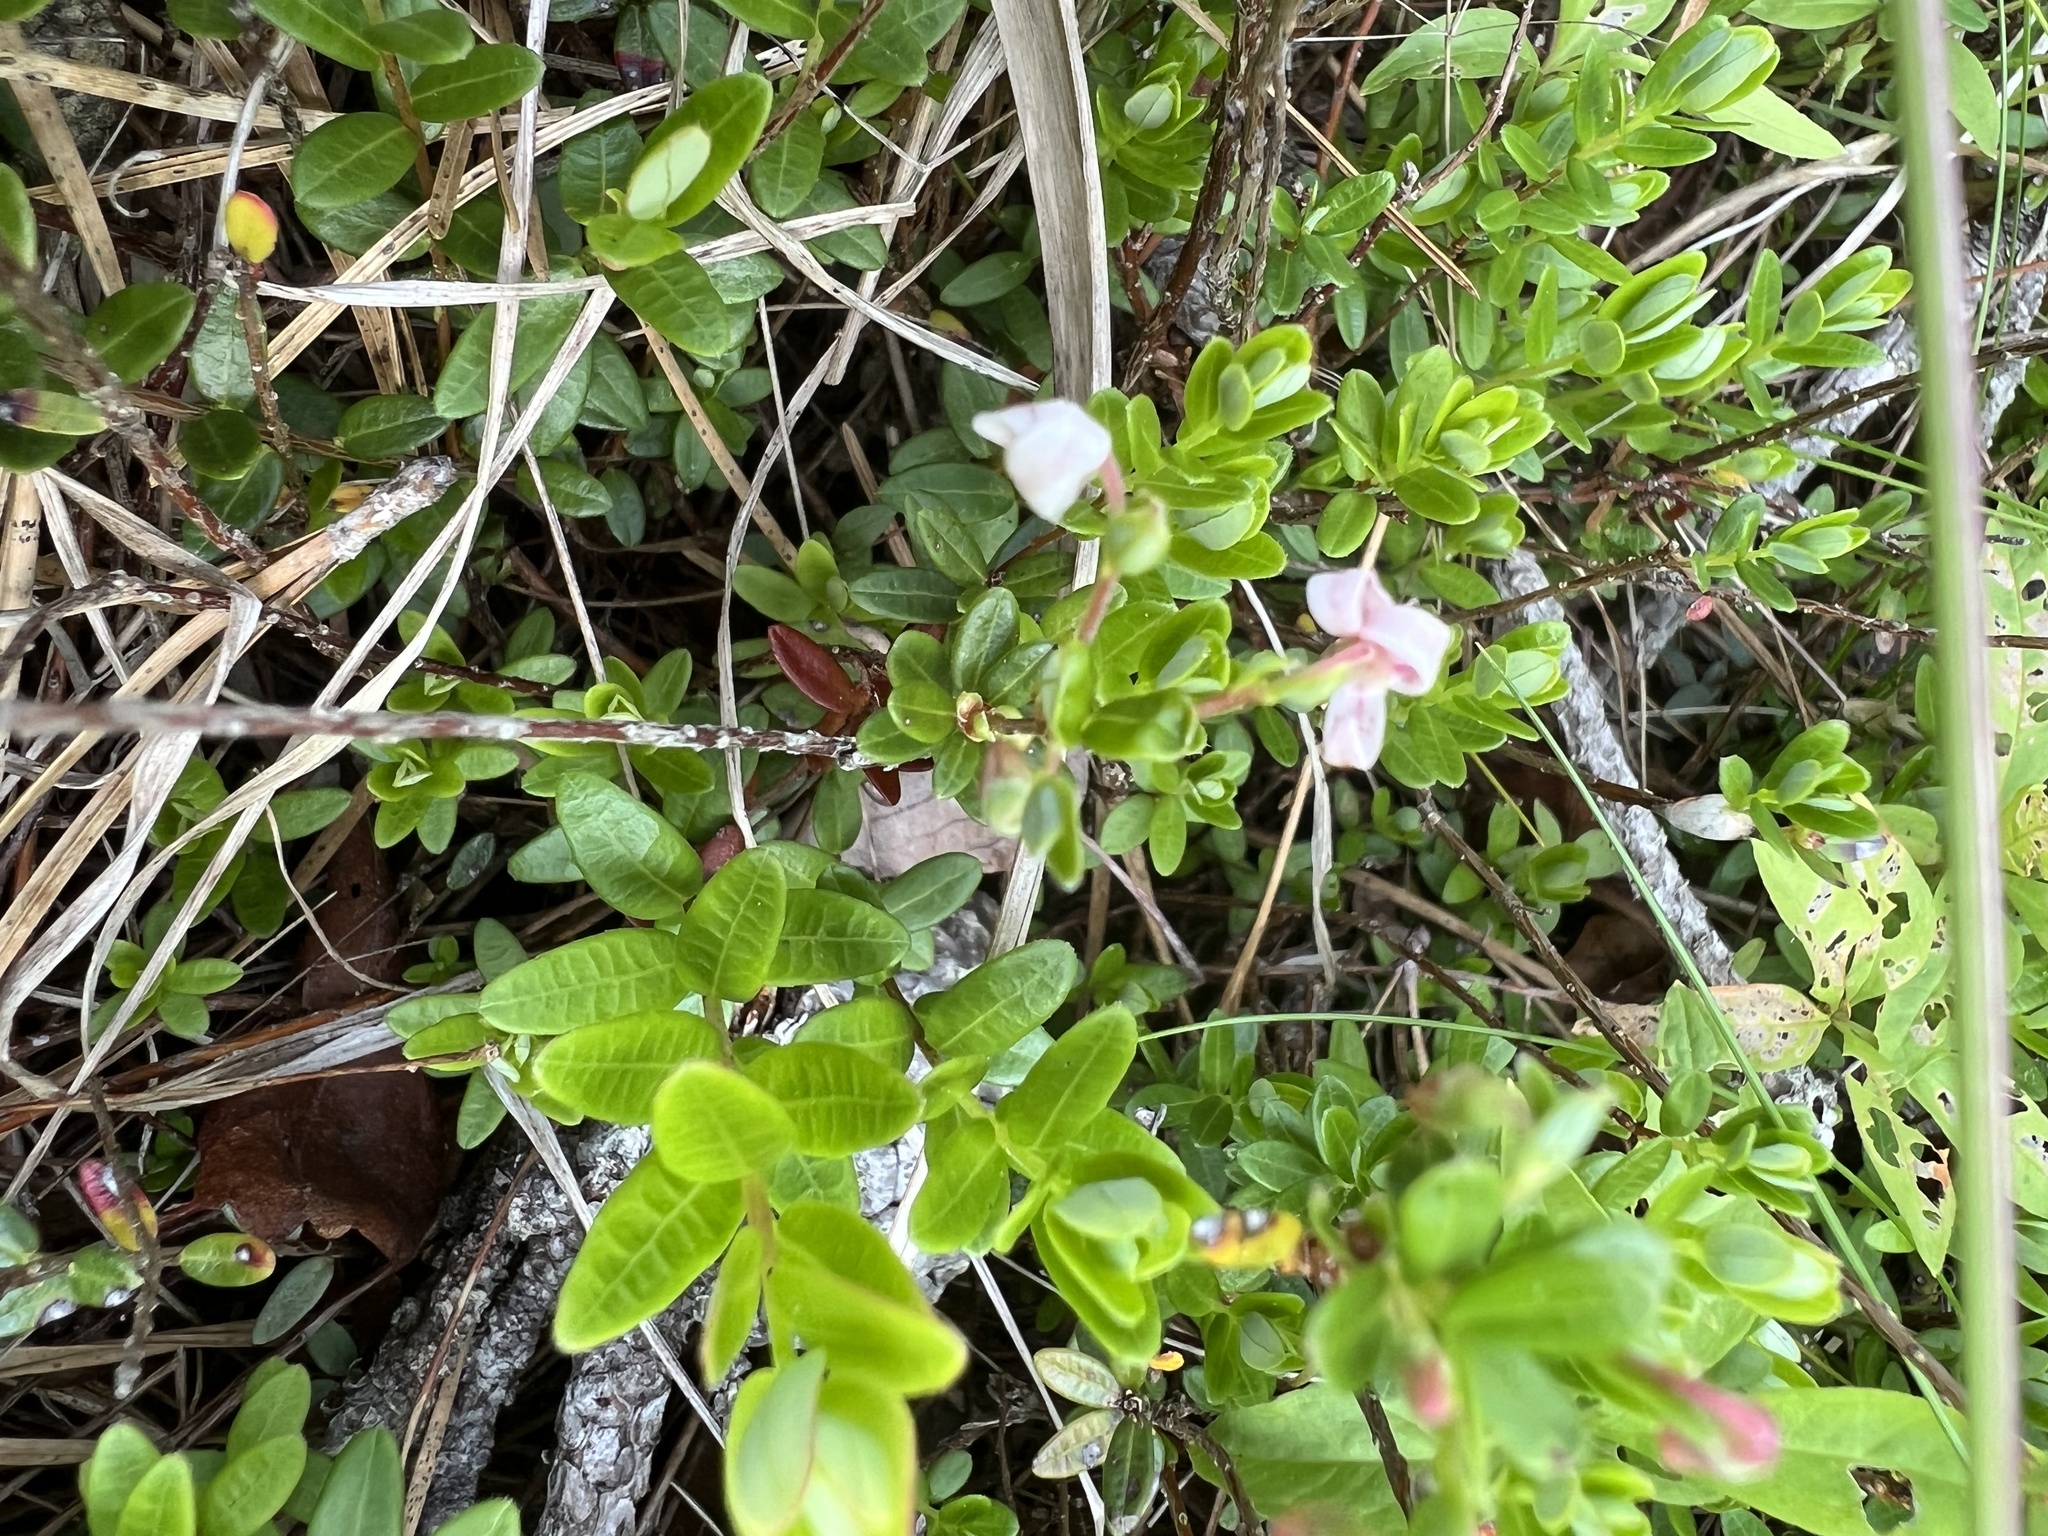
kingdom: Plantae
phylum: Tracheophyta
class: Magnoliopsida
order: Ericales
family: Ericaceae
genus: Vaccinium
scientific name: Vaccinium macrocarpon
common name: American cranberry
